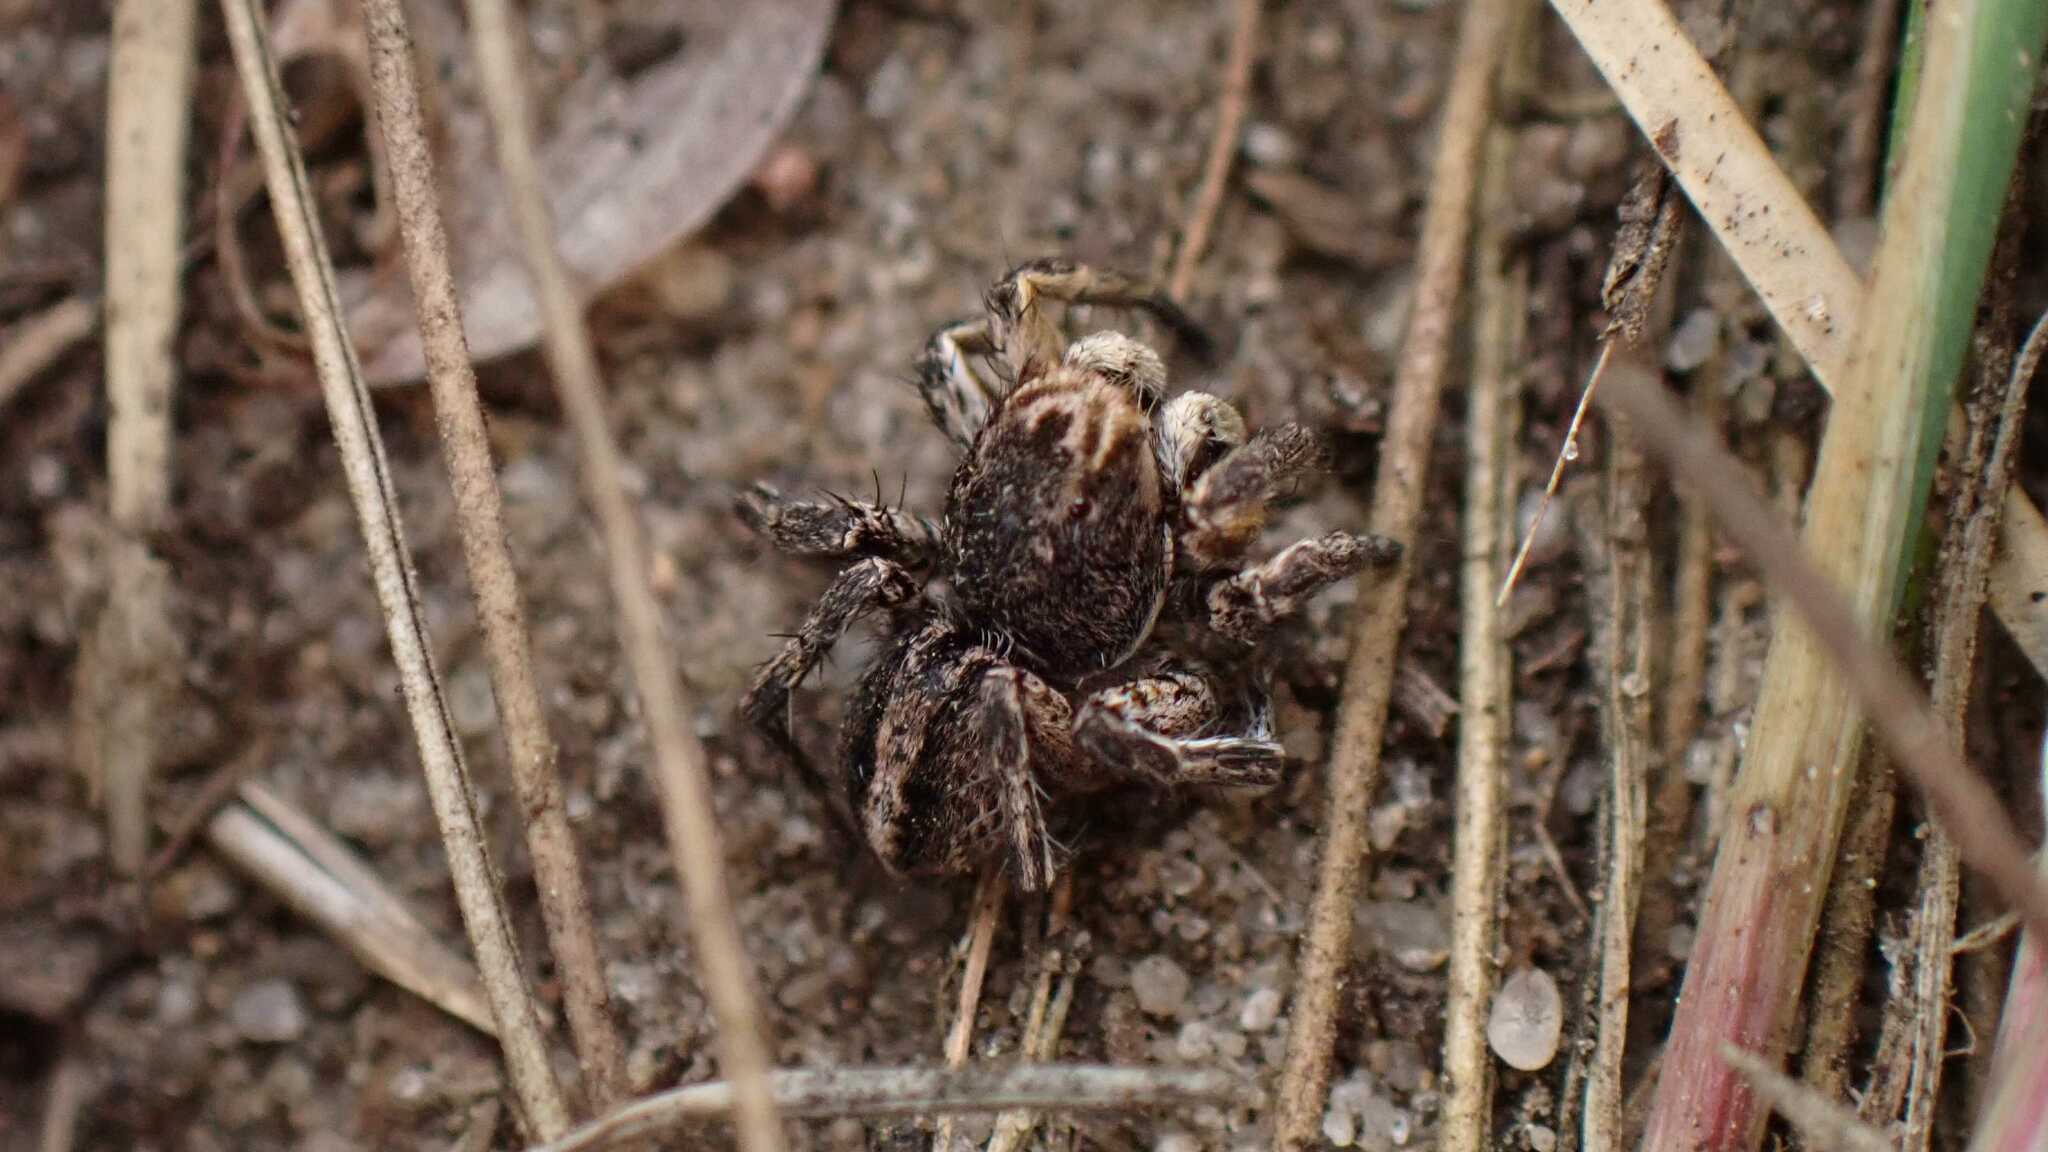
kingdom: Animalia
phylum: Arthropoda
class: Arachnida
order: Araneae
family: Salticidae
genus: Aelurillus
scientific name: Aelurillus v-insignitus
